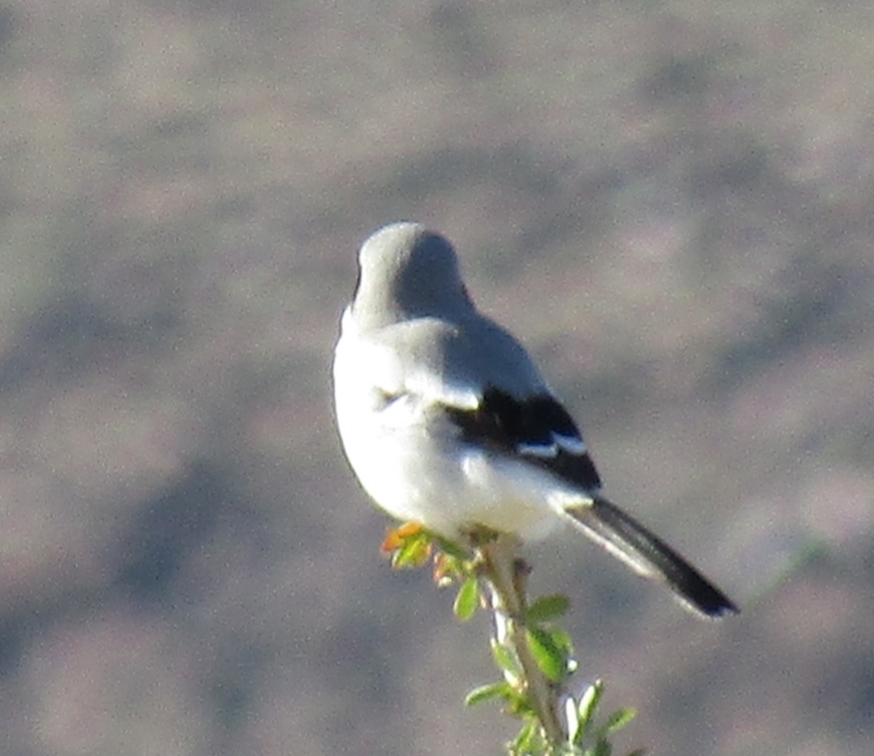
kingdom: Animalia
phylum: Chordata
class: Aves
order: Passeriformes
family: Laniidae
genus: Lanius
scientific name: Lanius ludovicianus
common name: Loggerhead shrike
